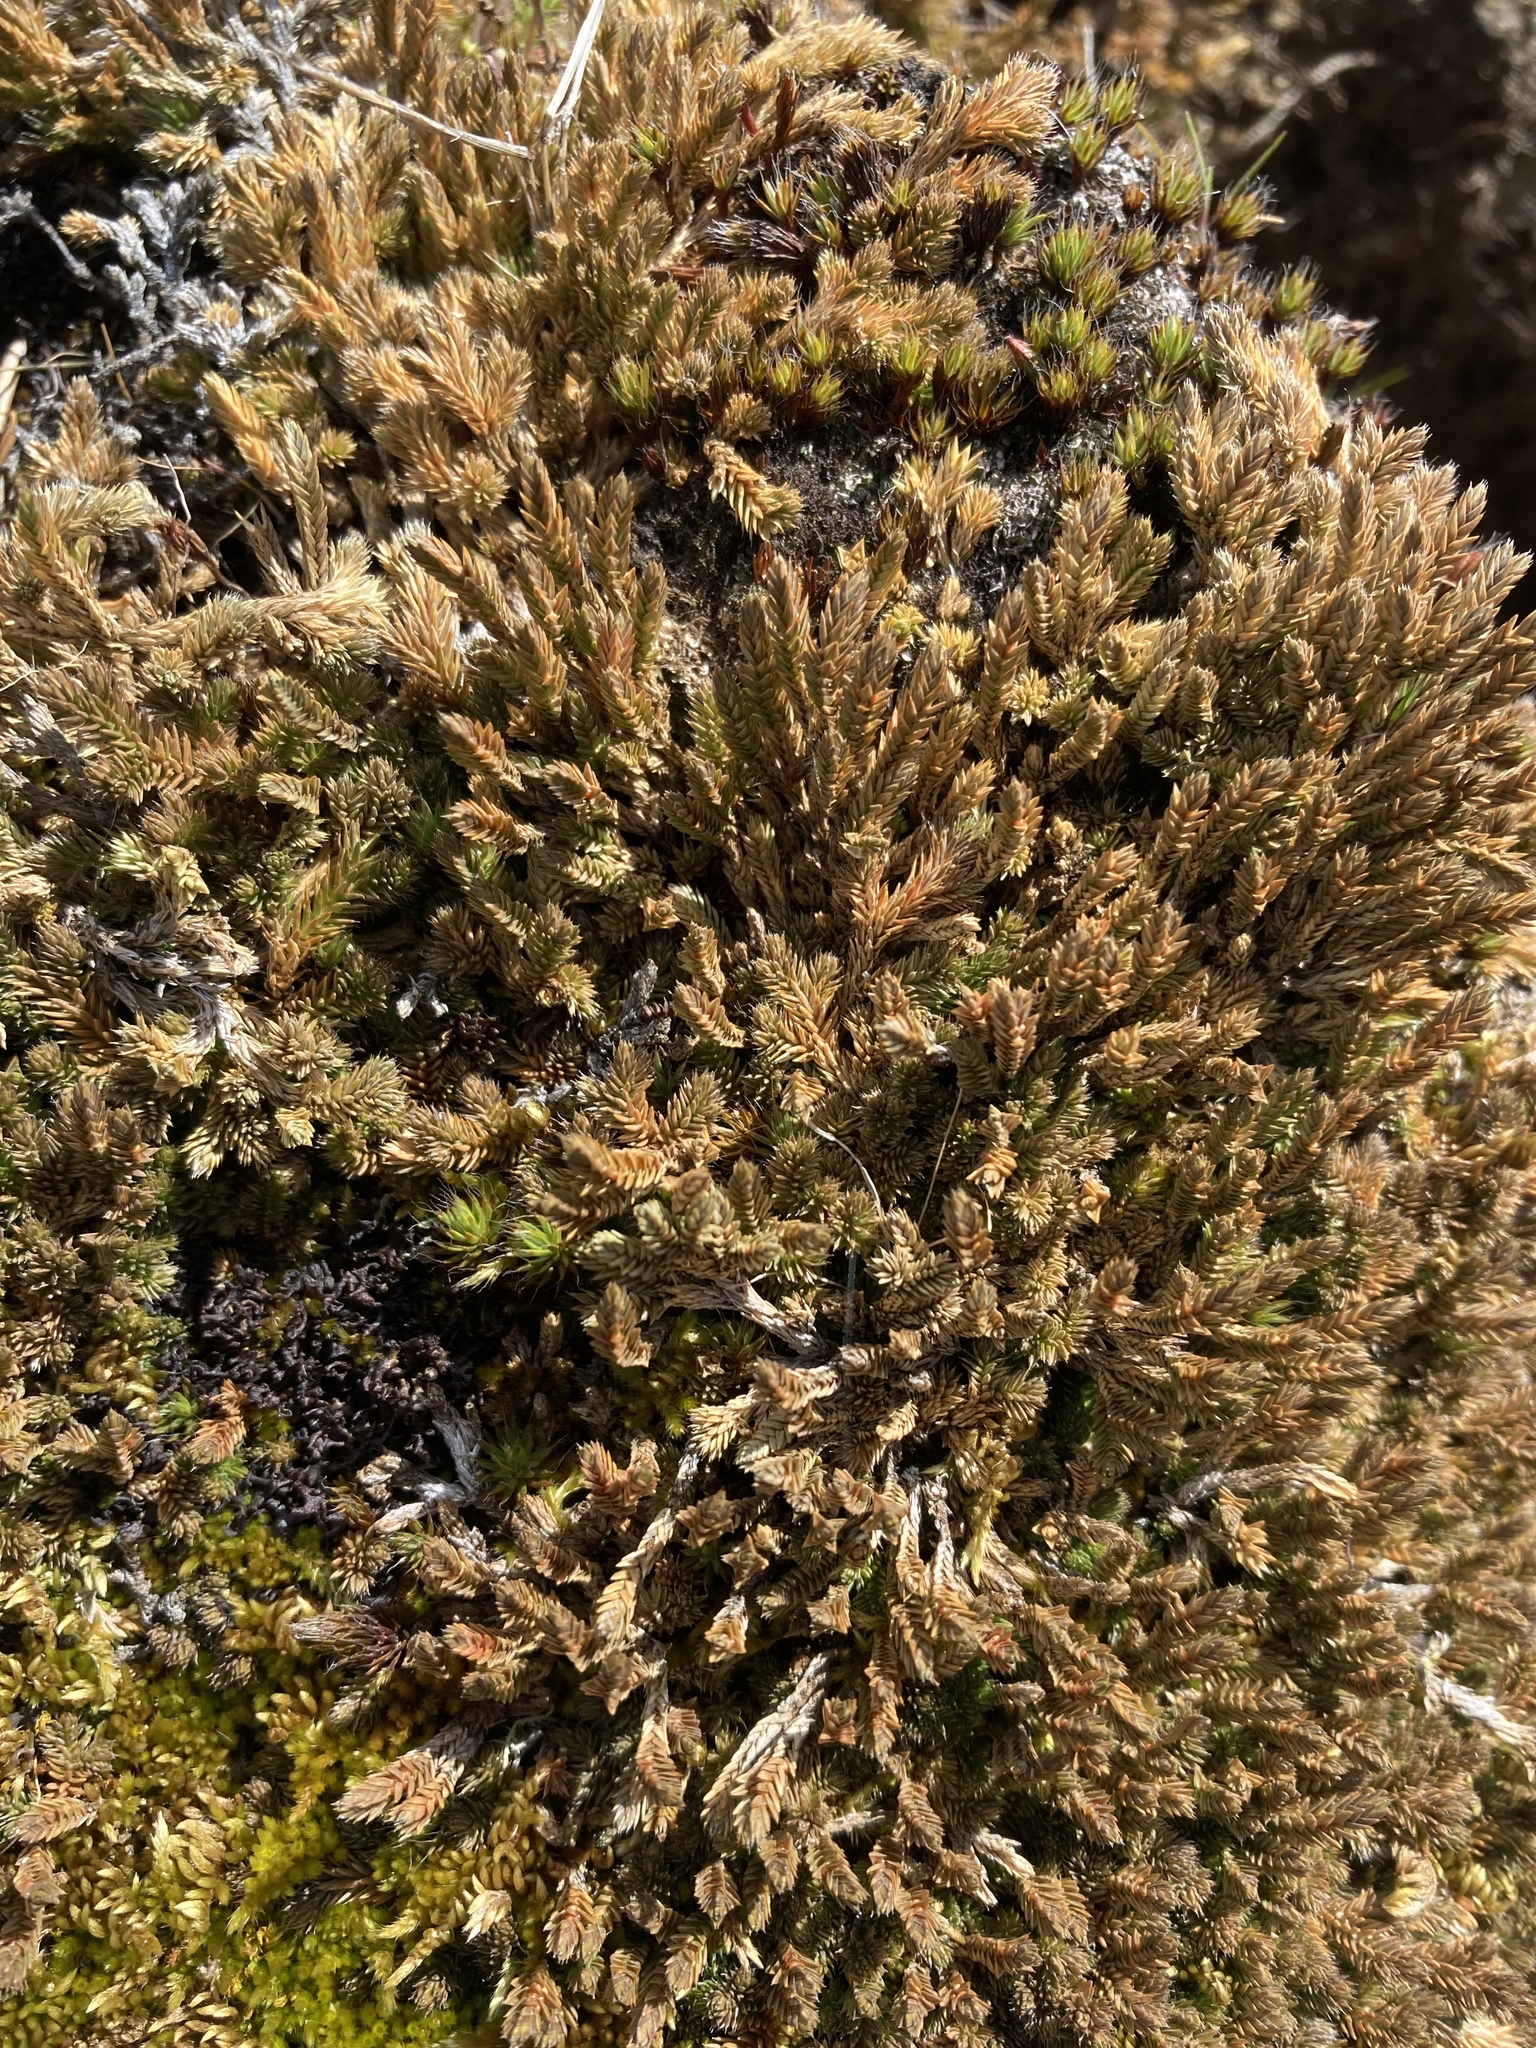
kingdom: Plantae
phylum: Tracheophyta
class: Lycopodiopsida
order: Selaginellales
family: Selaginellaceae
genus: Selaginella
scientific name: Selaginella wallacei
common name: Wallace's selaginella
